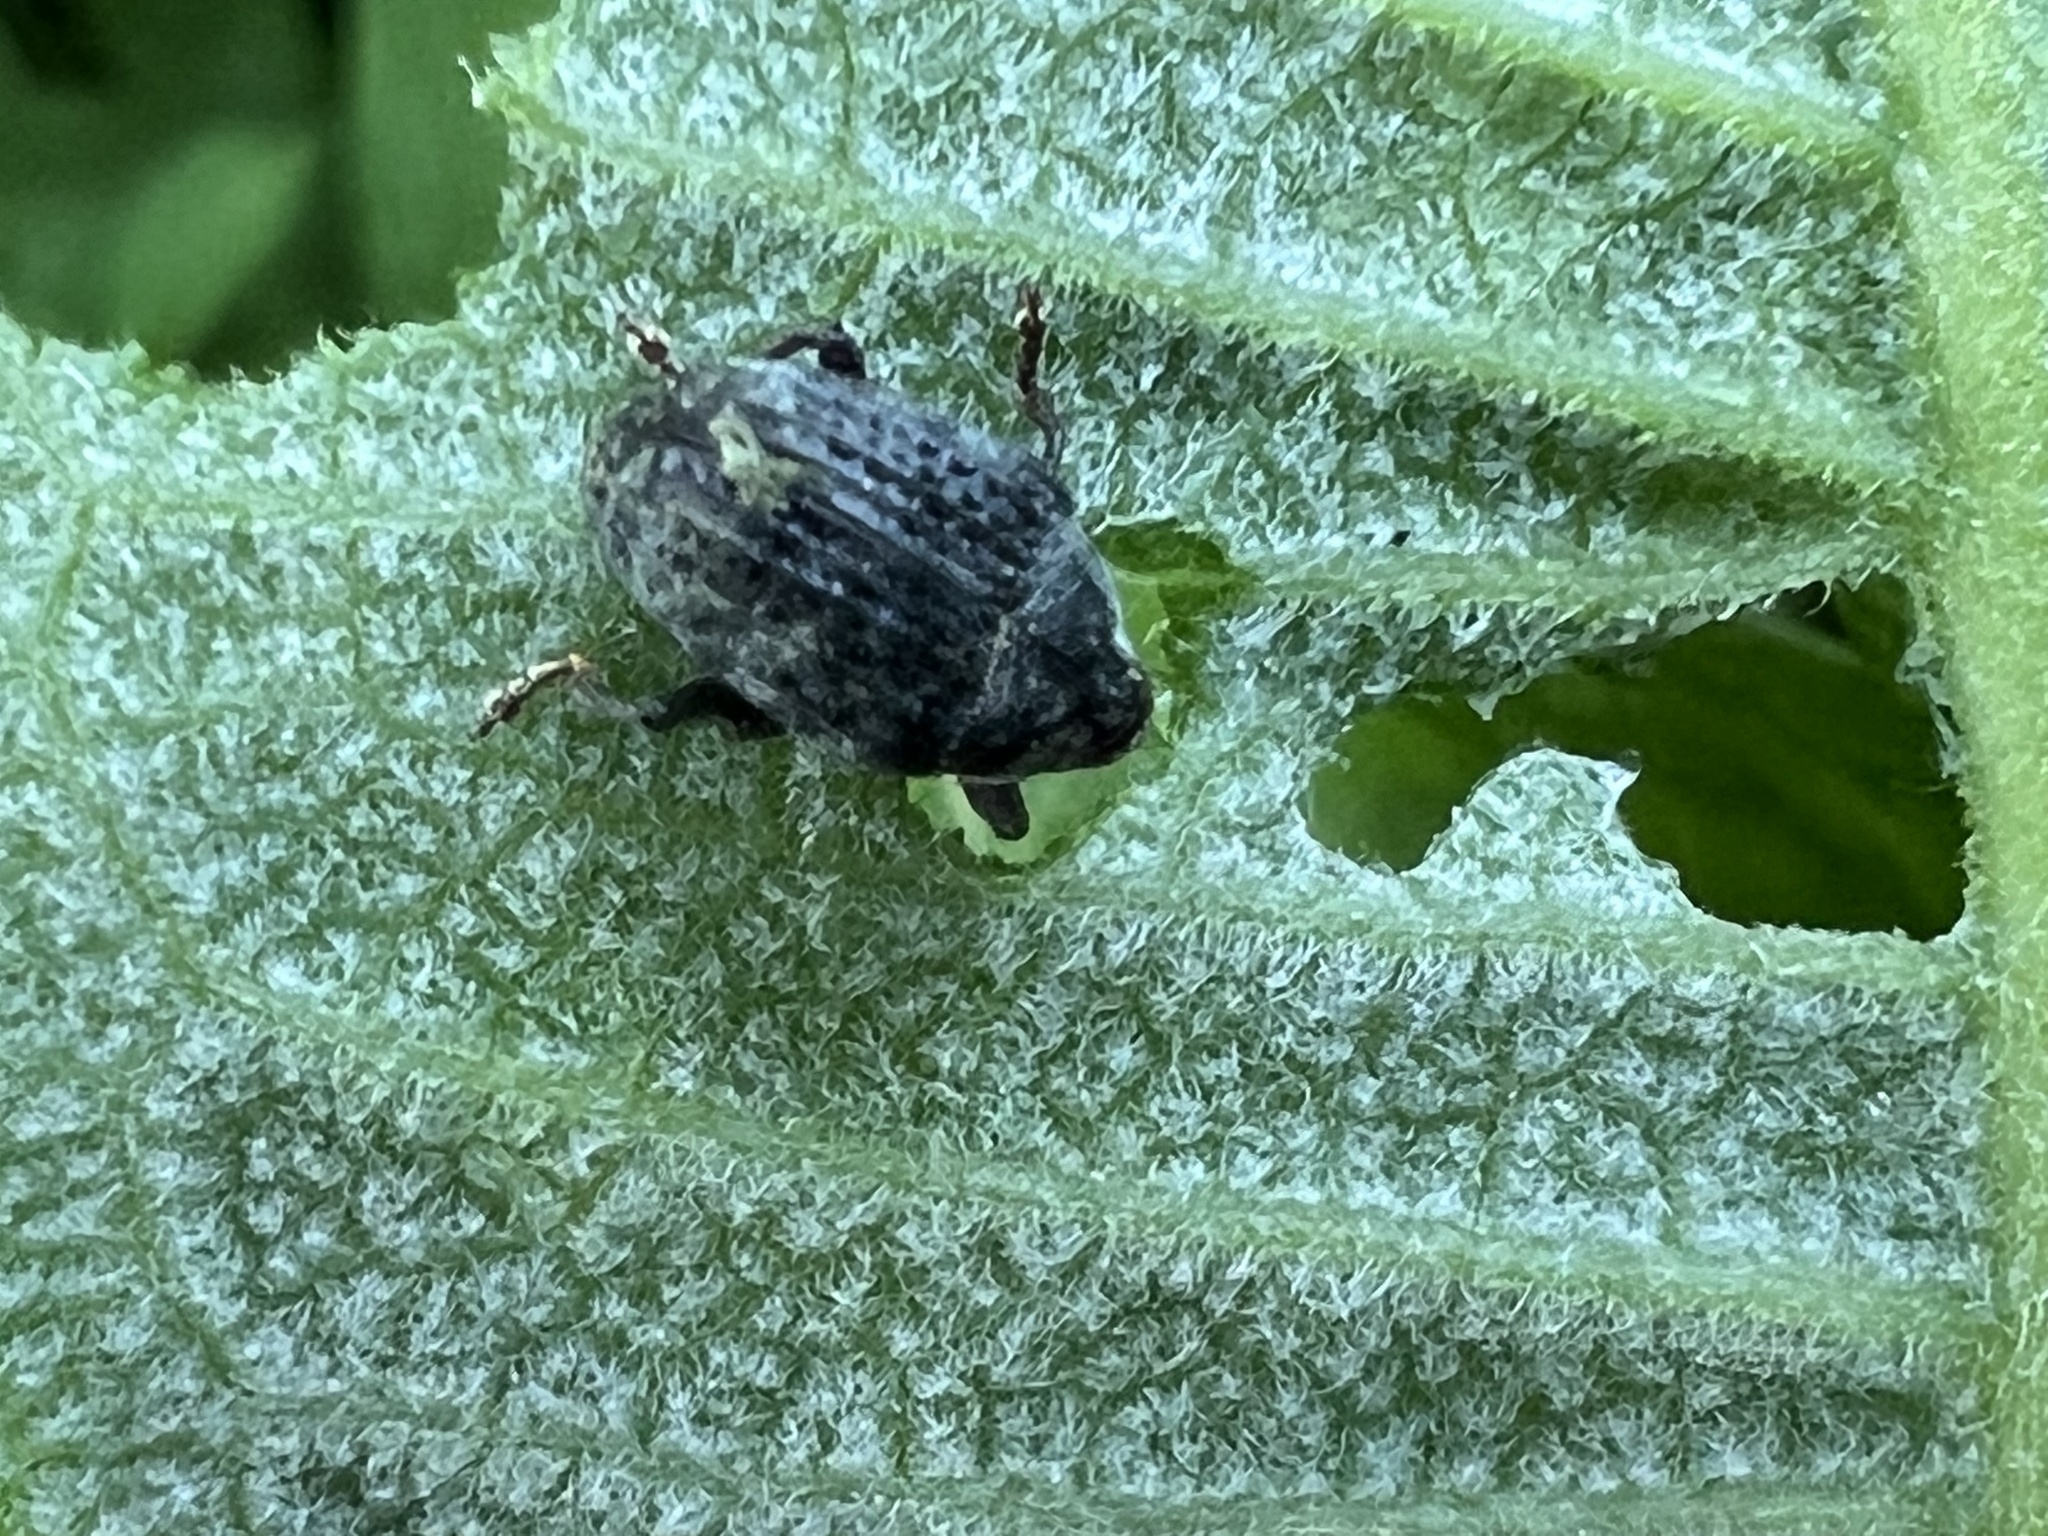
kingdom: Animalia
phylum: Arthropoda
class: Insecta
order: Coleoptera
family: Curculionidae
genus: Rhyssomatus
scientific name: Rhyssomatus lineaticollis
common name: Milkweed stem weevil
